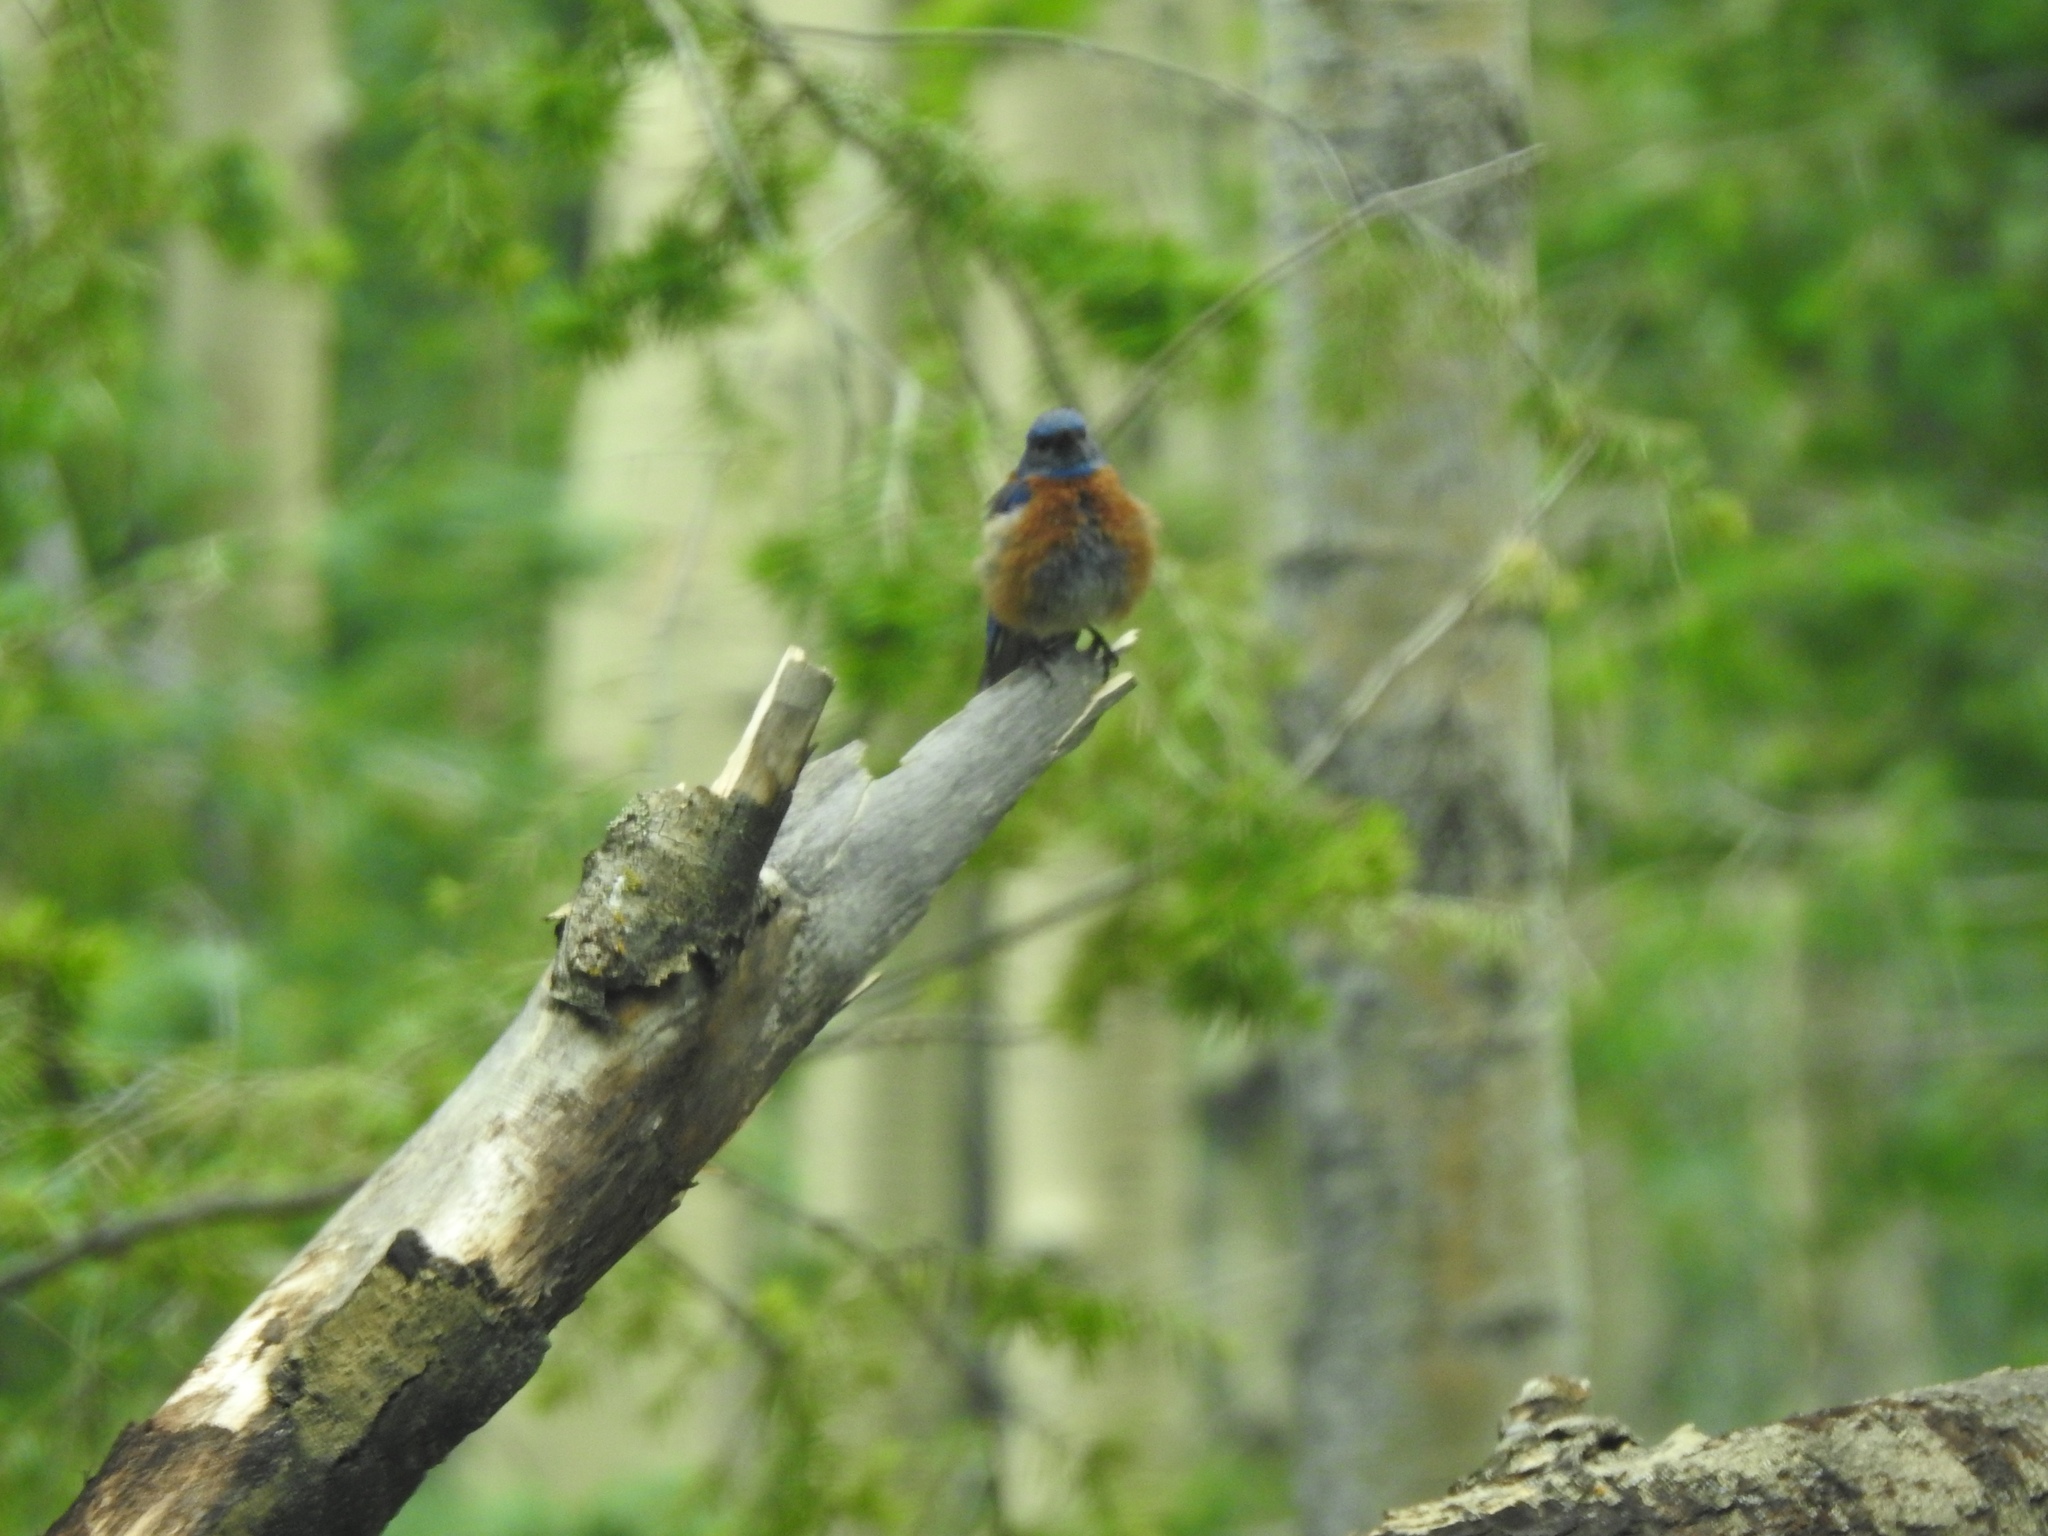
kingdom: Animalia
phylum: Chordata
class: Aves
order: Passeriformes
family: Turdidae
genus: Sialia
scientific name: Sialia mexicana
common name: Western bluebird
